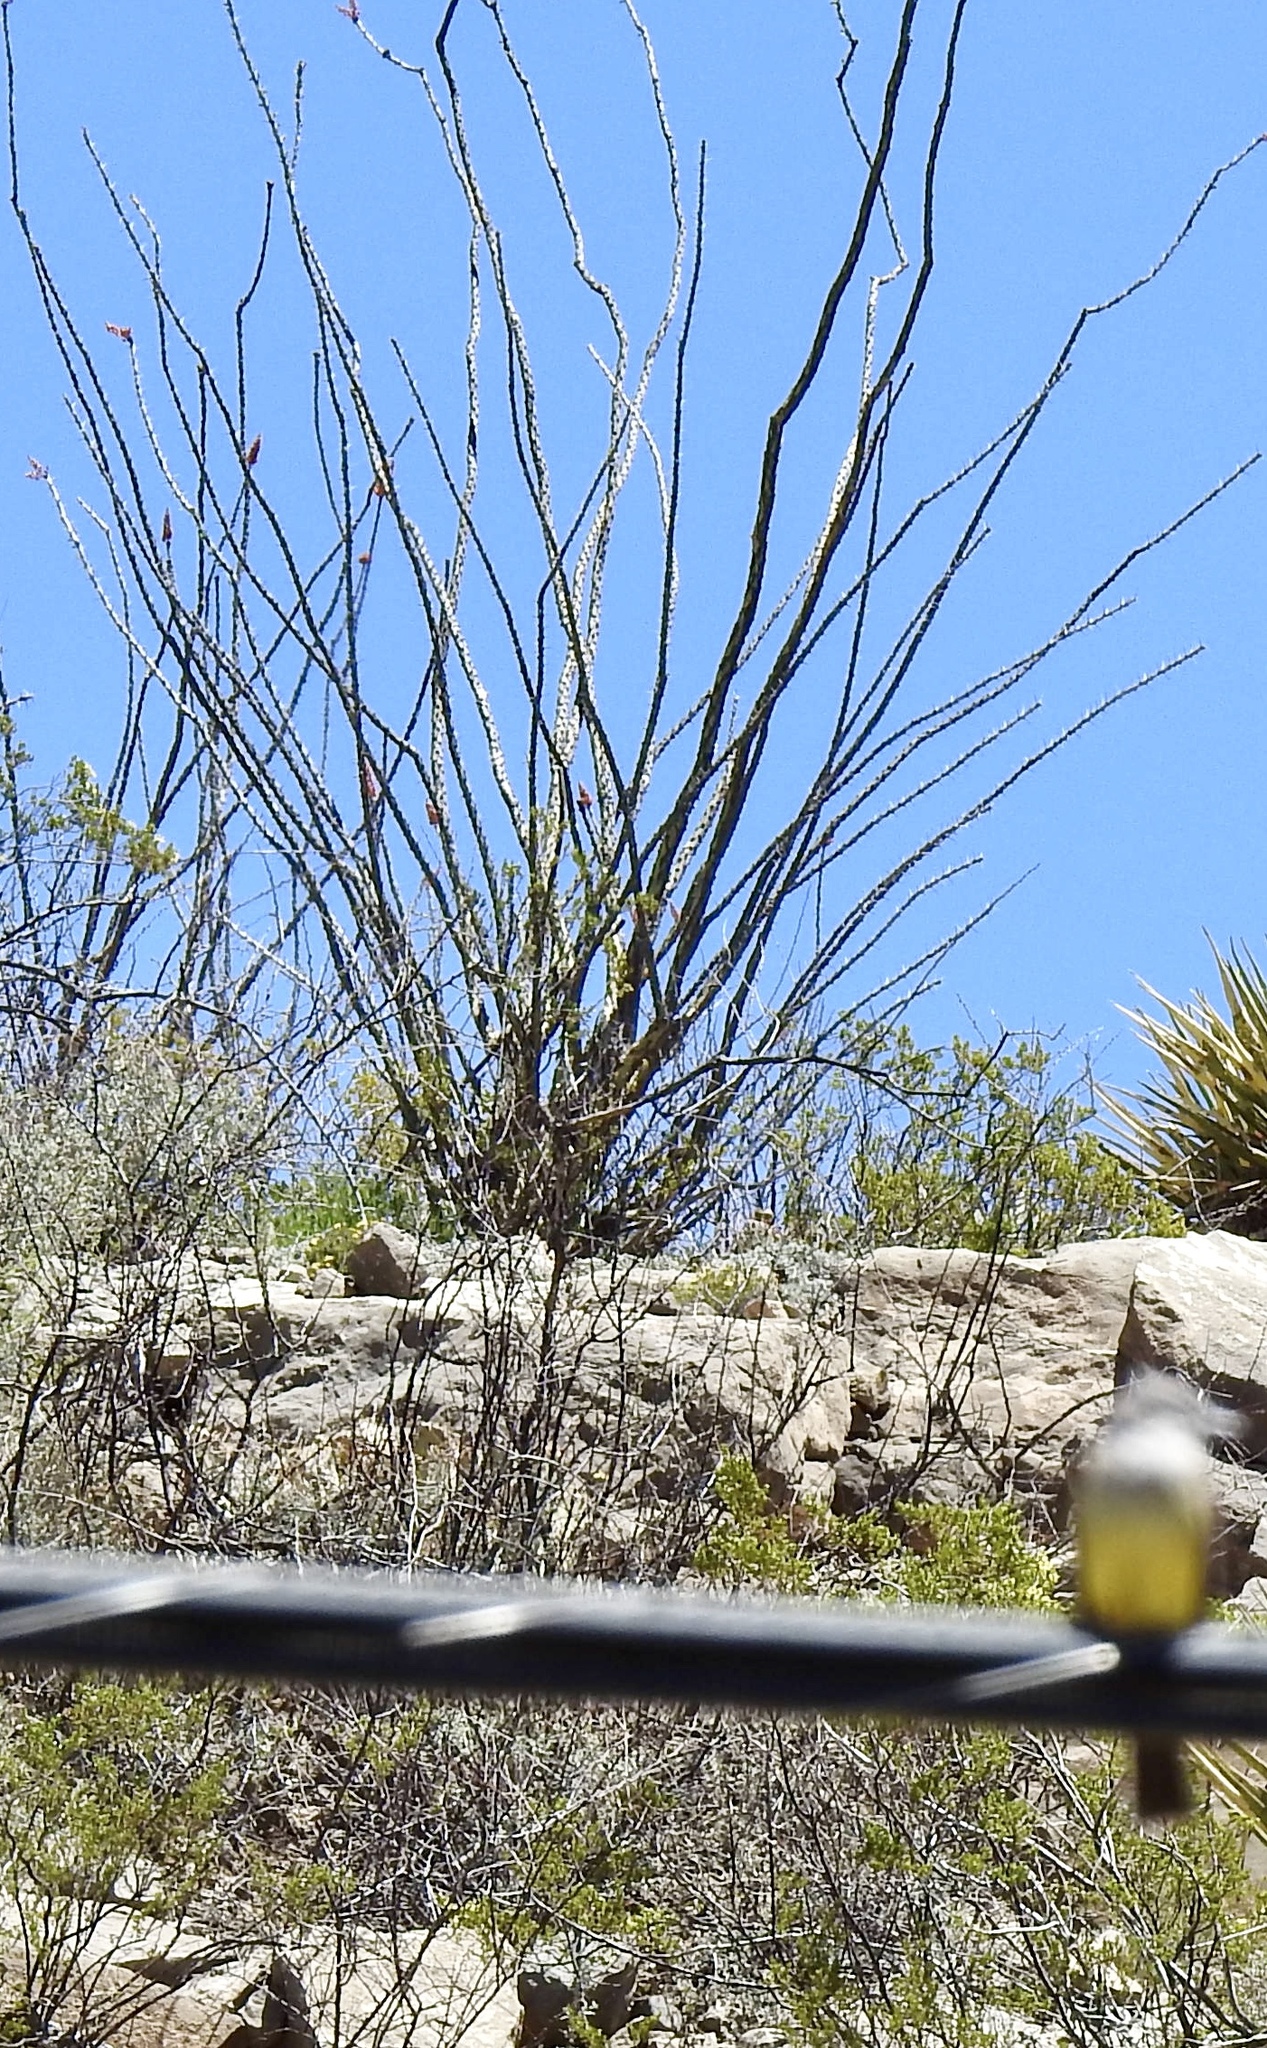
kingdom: Plantae
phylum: Tracheophyta
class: Magnoliopsida
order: Ericales
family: Fouquieriaceae
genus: Fouquieria
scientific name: Fouquieria splendens
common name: Vine-cactus
